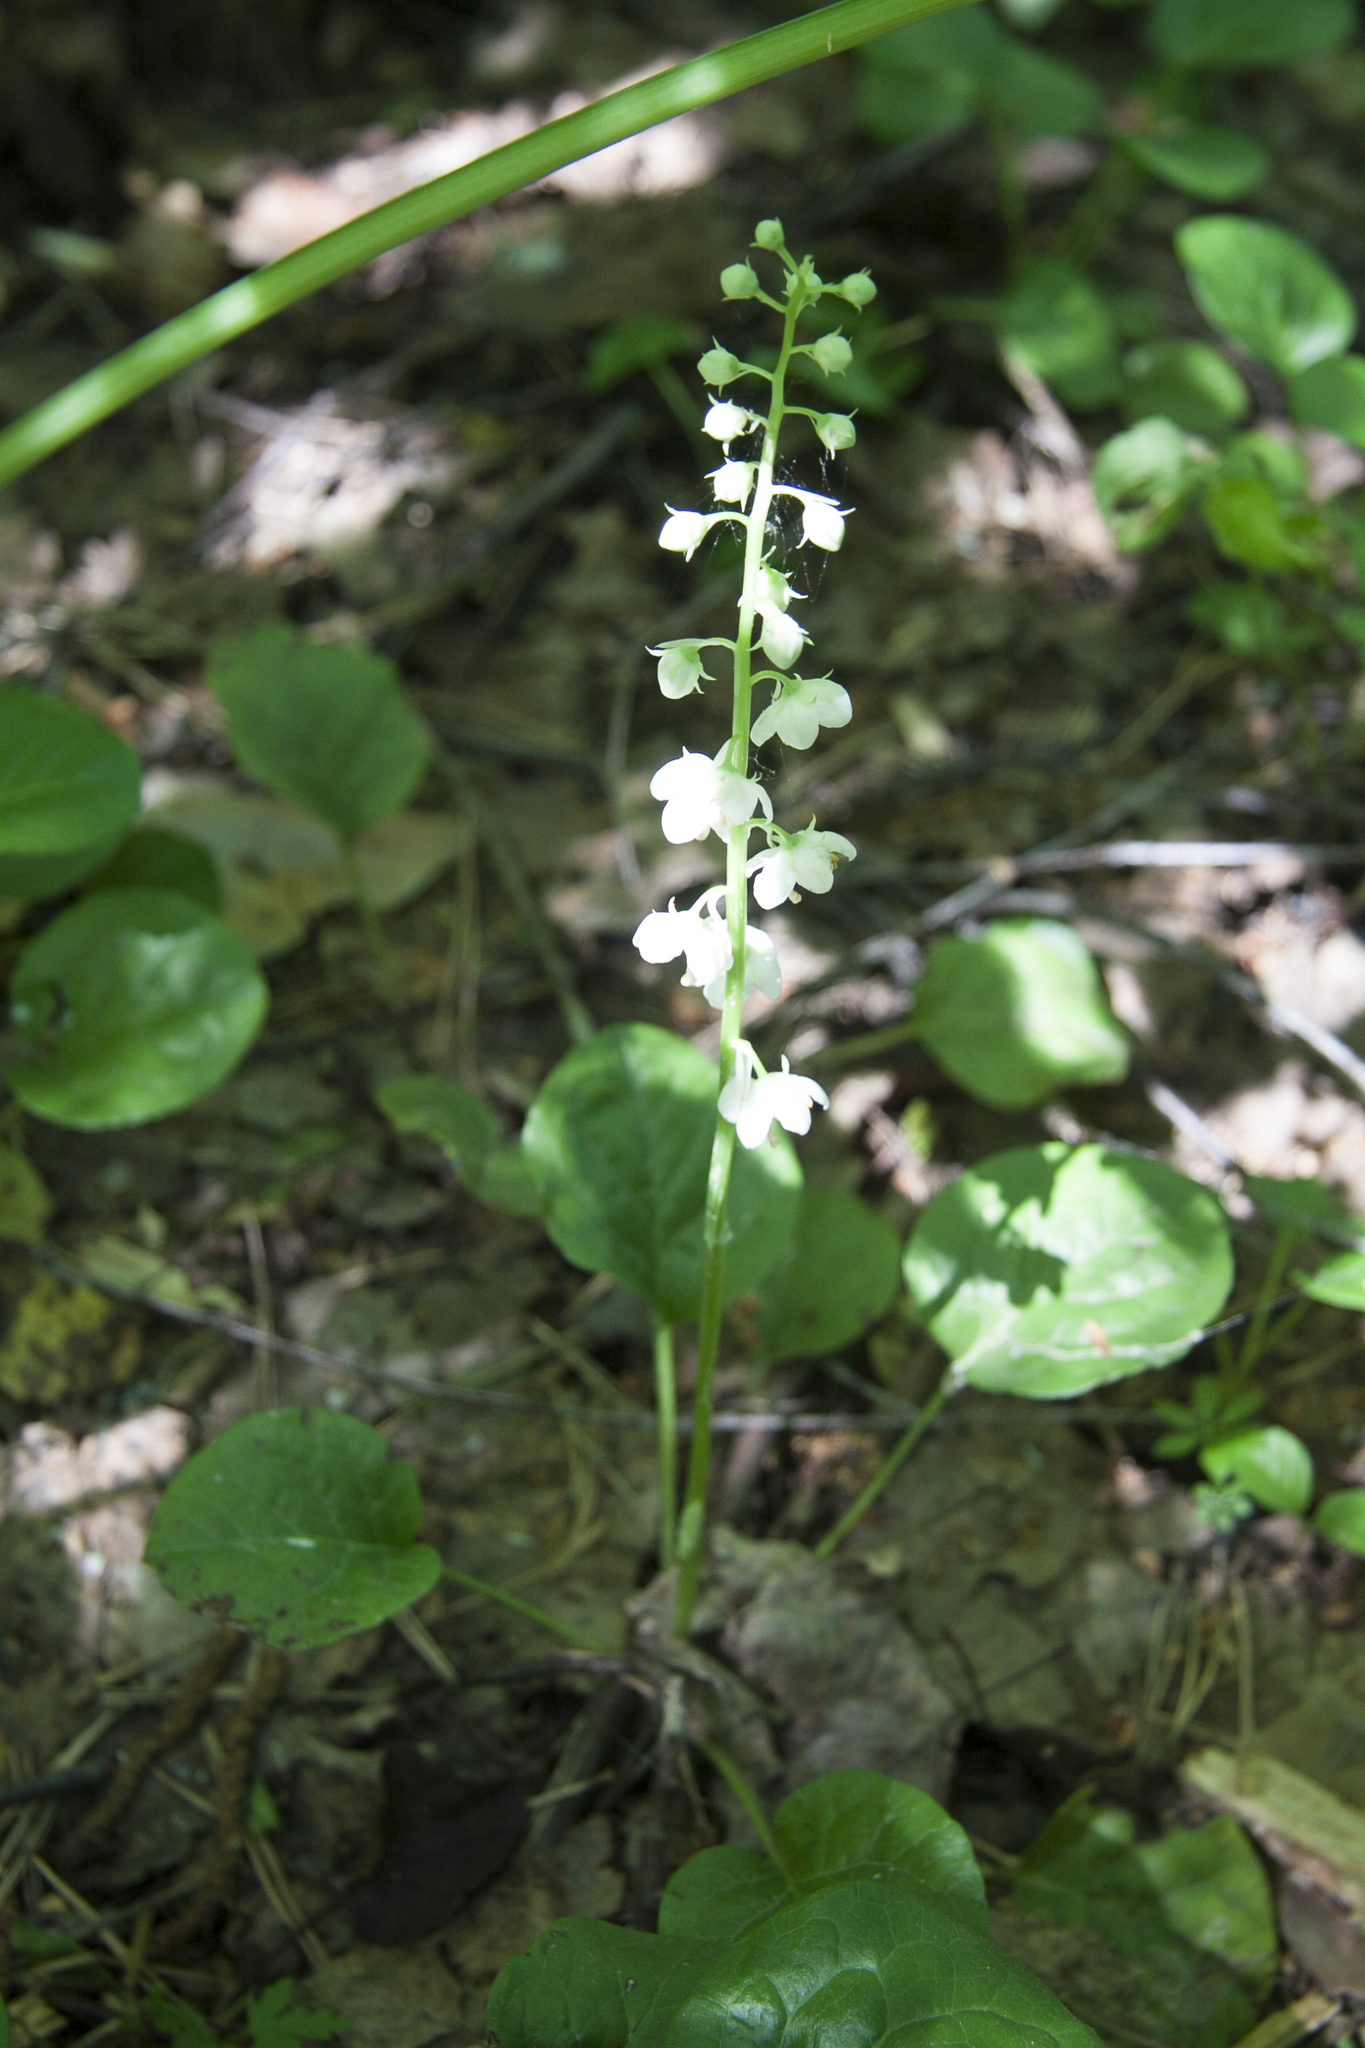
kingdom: Plantae
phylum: Tracheophyta
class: Magnoliopsida
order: Ericales
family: Ericaceae
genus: Pyrola
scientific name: Pyrola rotundifolia
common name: Round-leaved wintergreen
